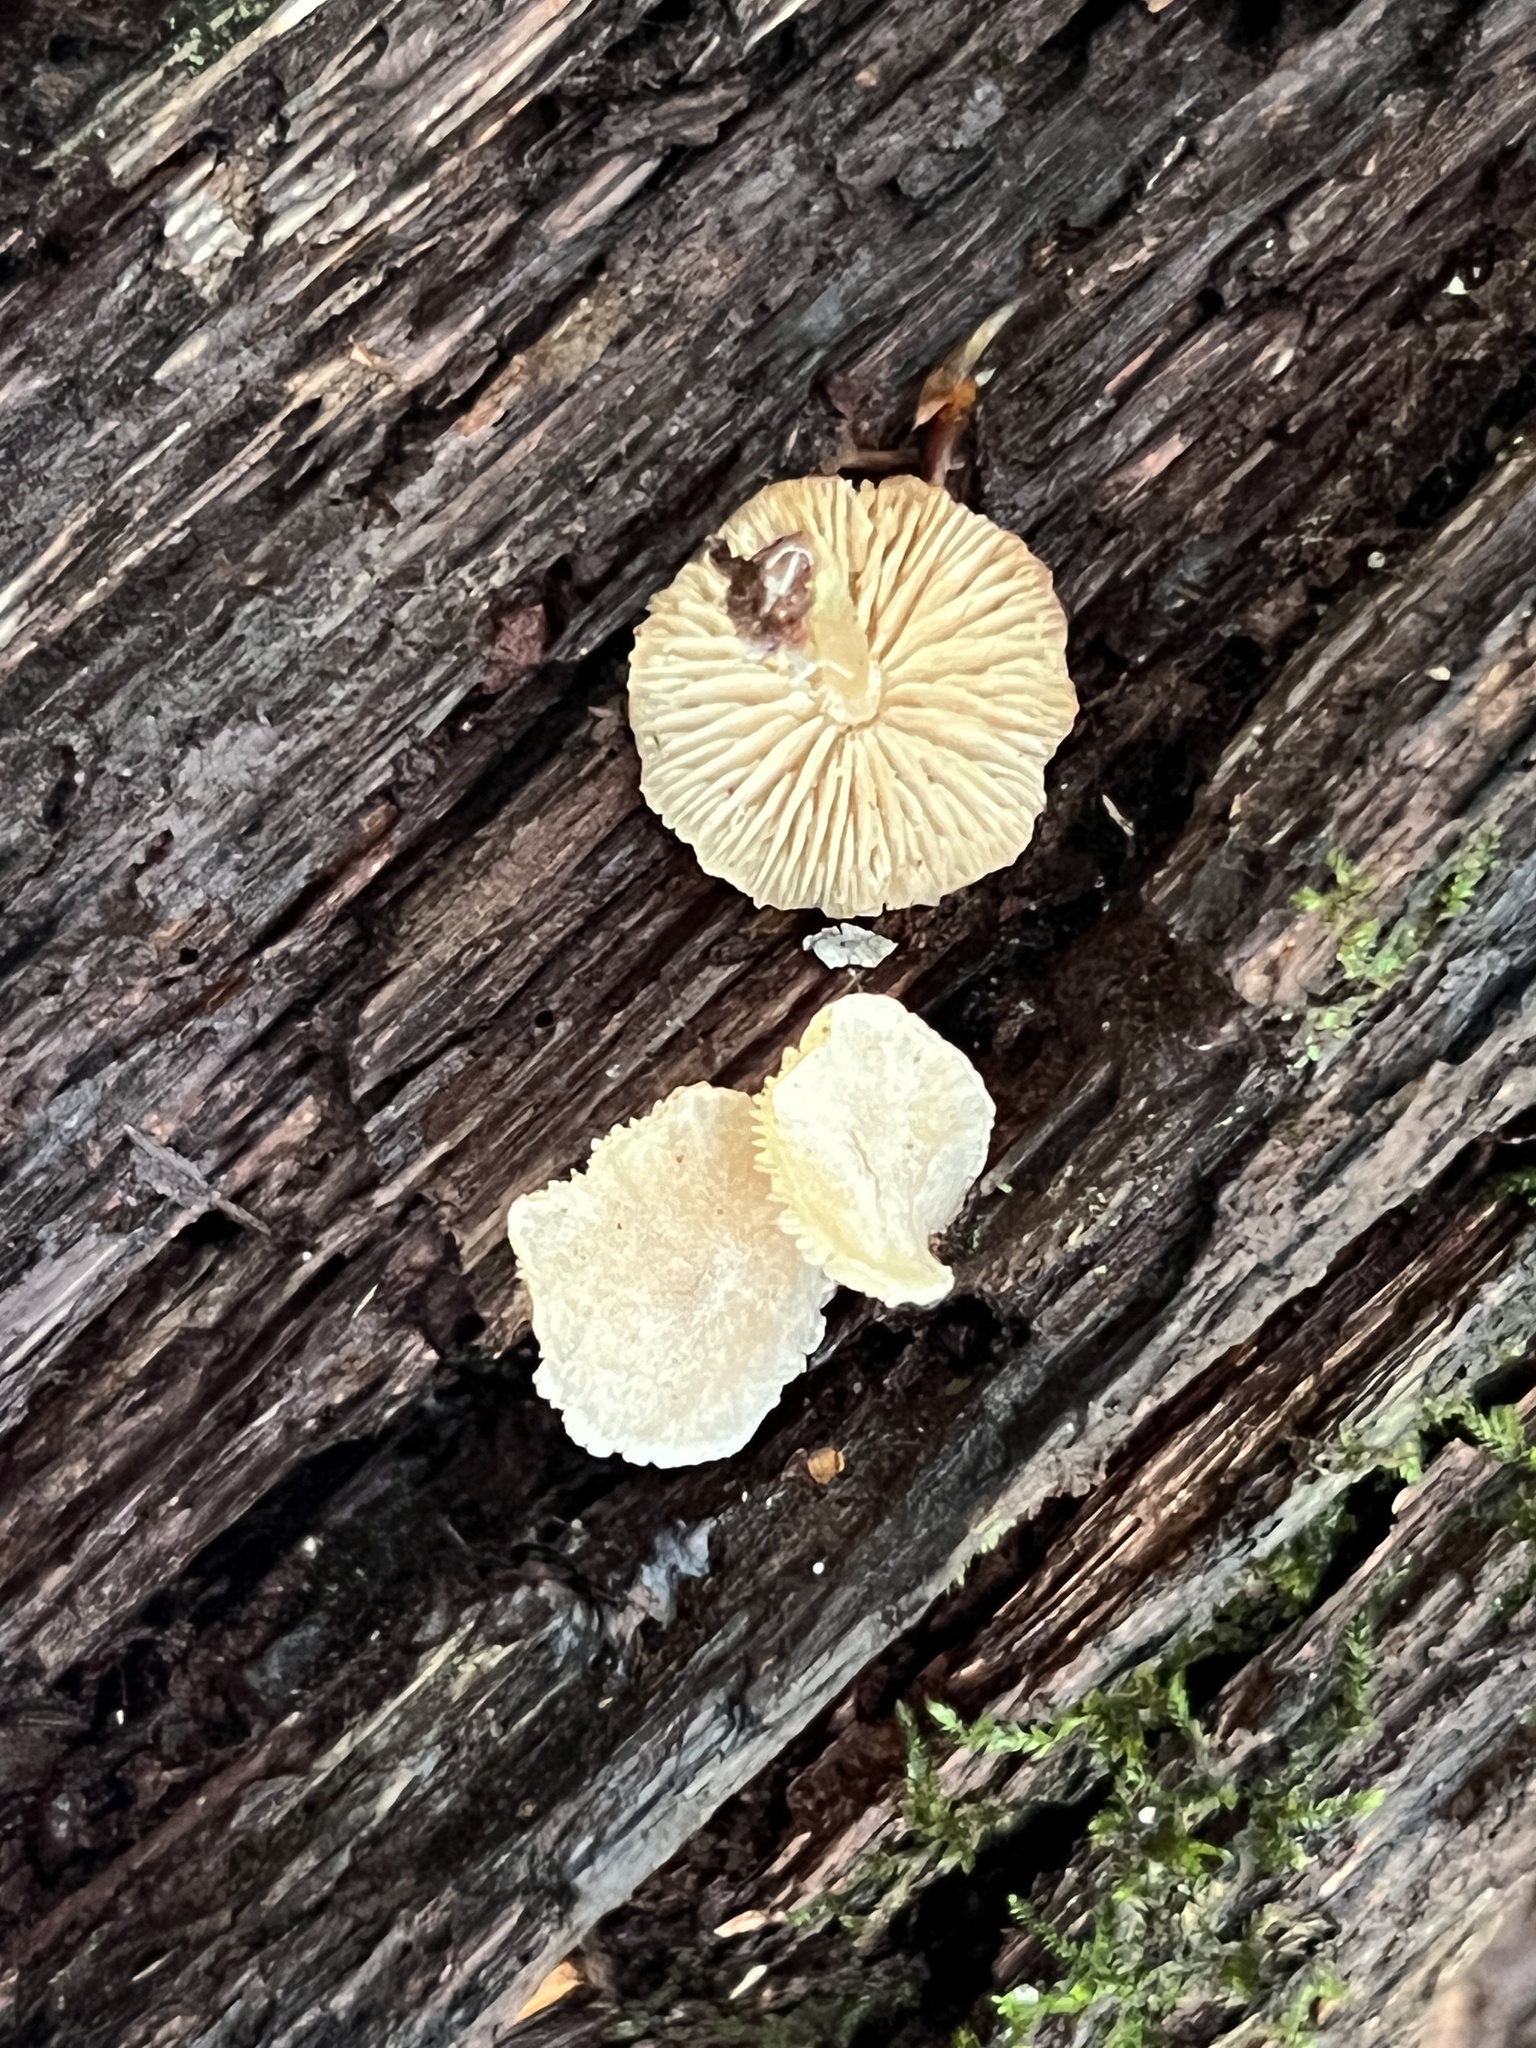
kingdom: Fungi
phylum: Basidiomycota
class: Agaricomycetes
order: Agaricales
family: Callistosporiaceae
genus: Callistosporium
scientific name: Callistosporium pseudofelleum
